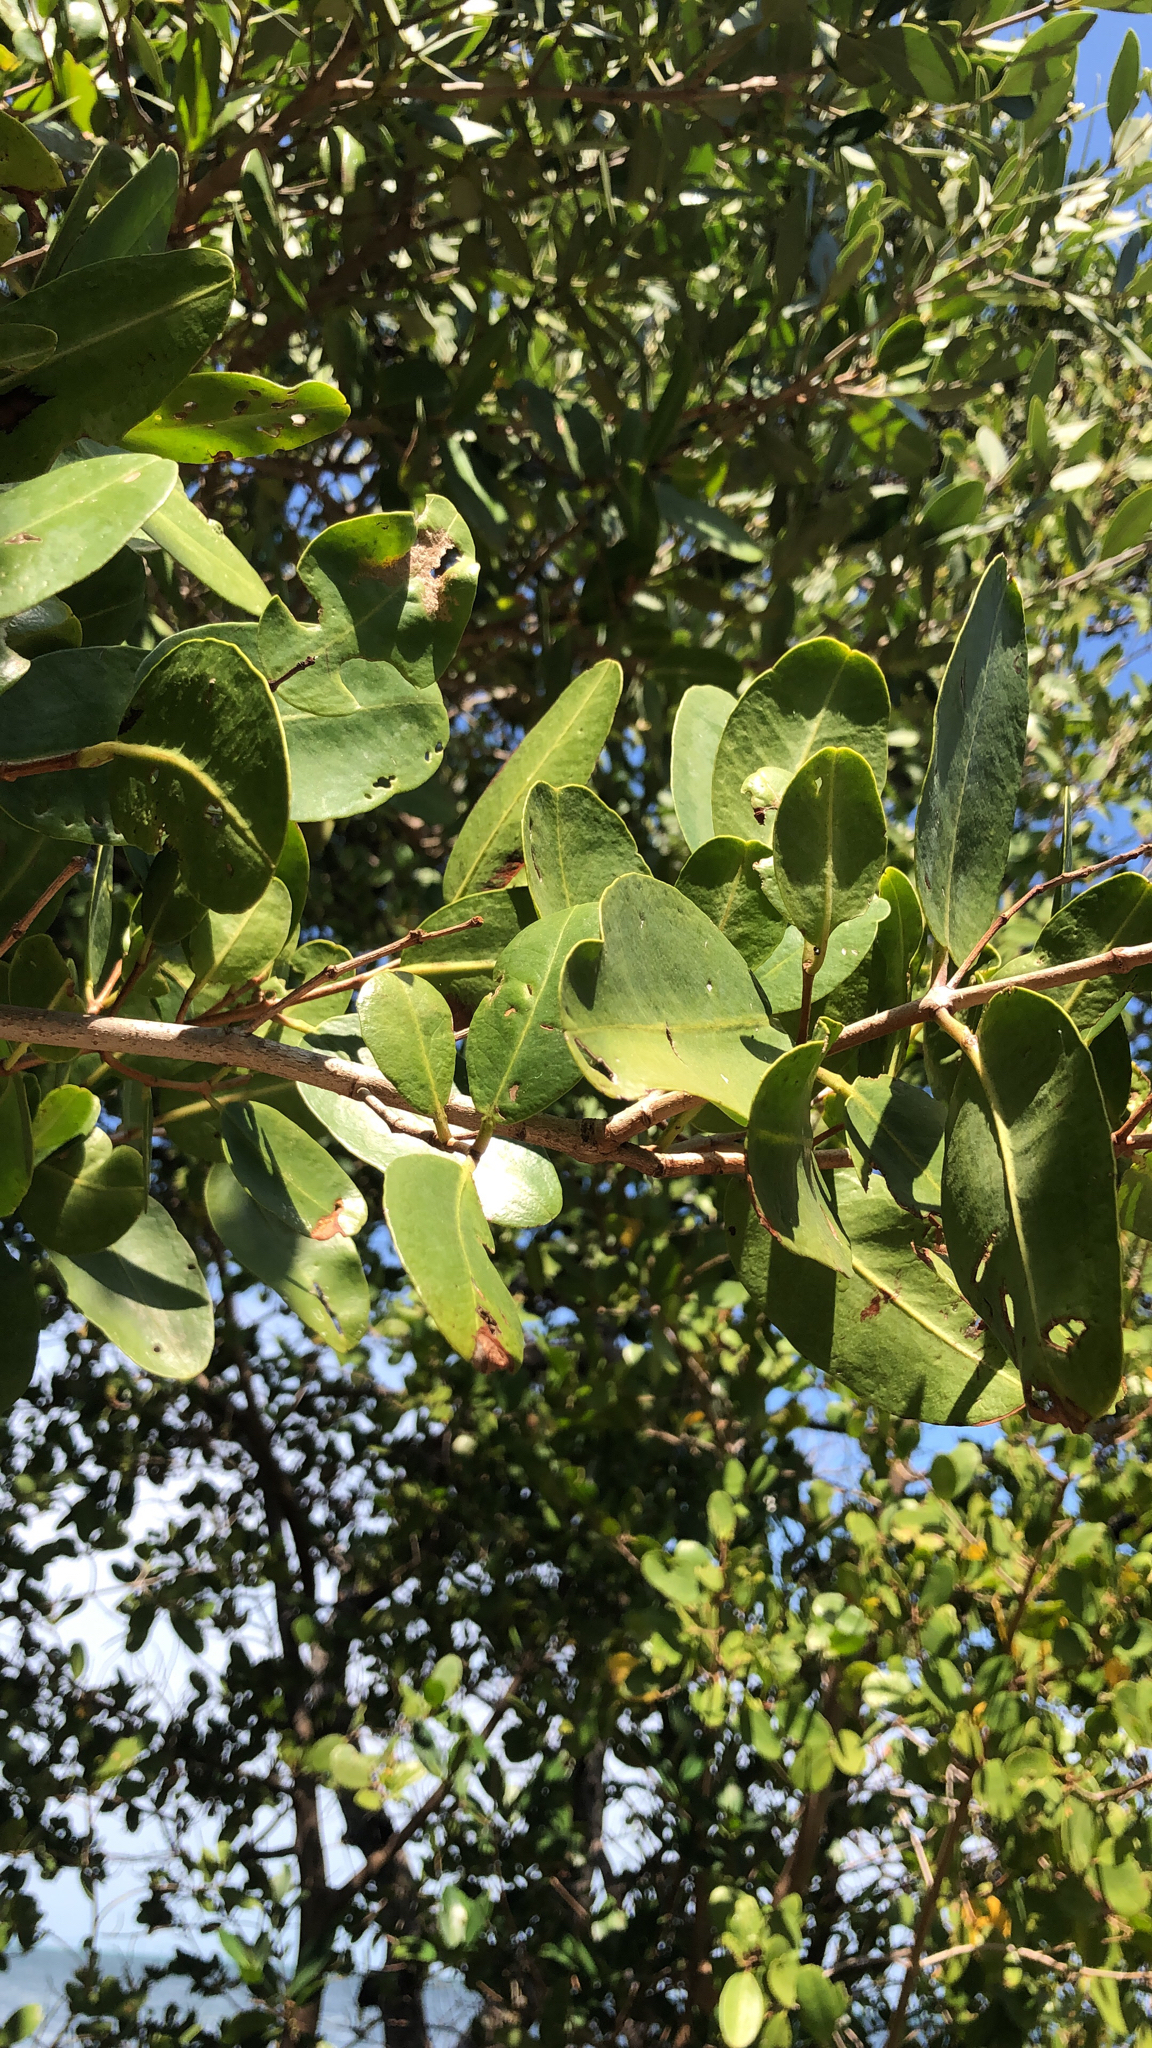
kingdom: Plantae
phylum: Tracheophyta
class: Magnoliopsida
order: Myrtales
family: Combretaceae
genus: Laguncularia
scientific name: Laguncularia racemosa
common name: White mangrove
